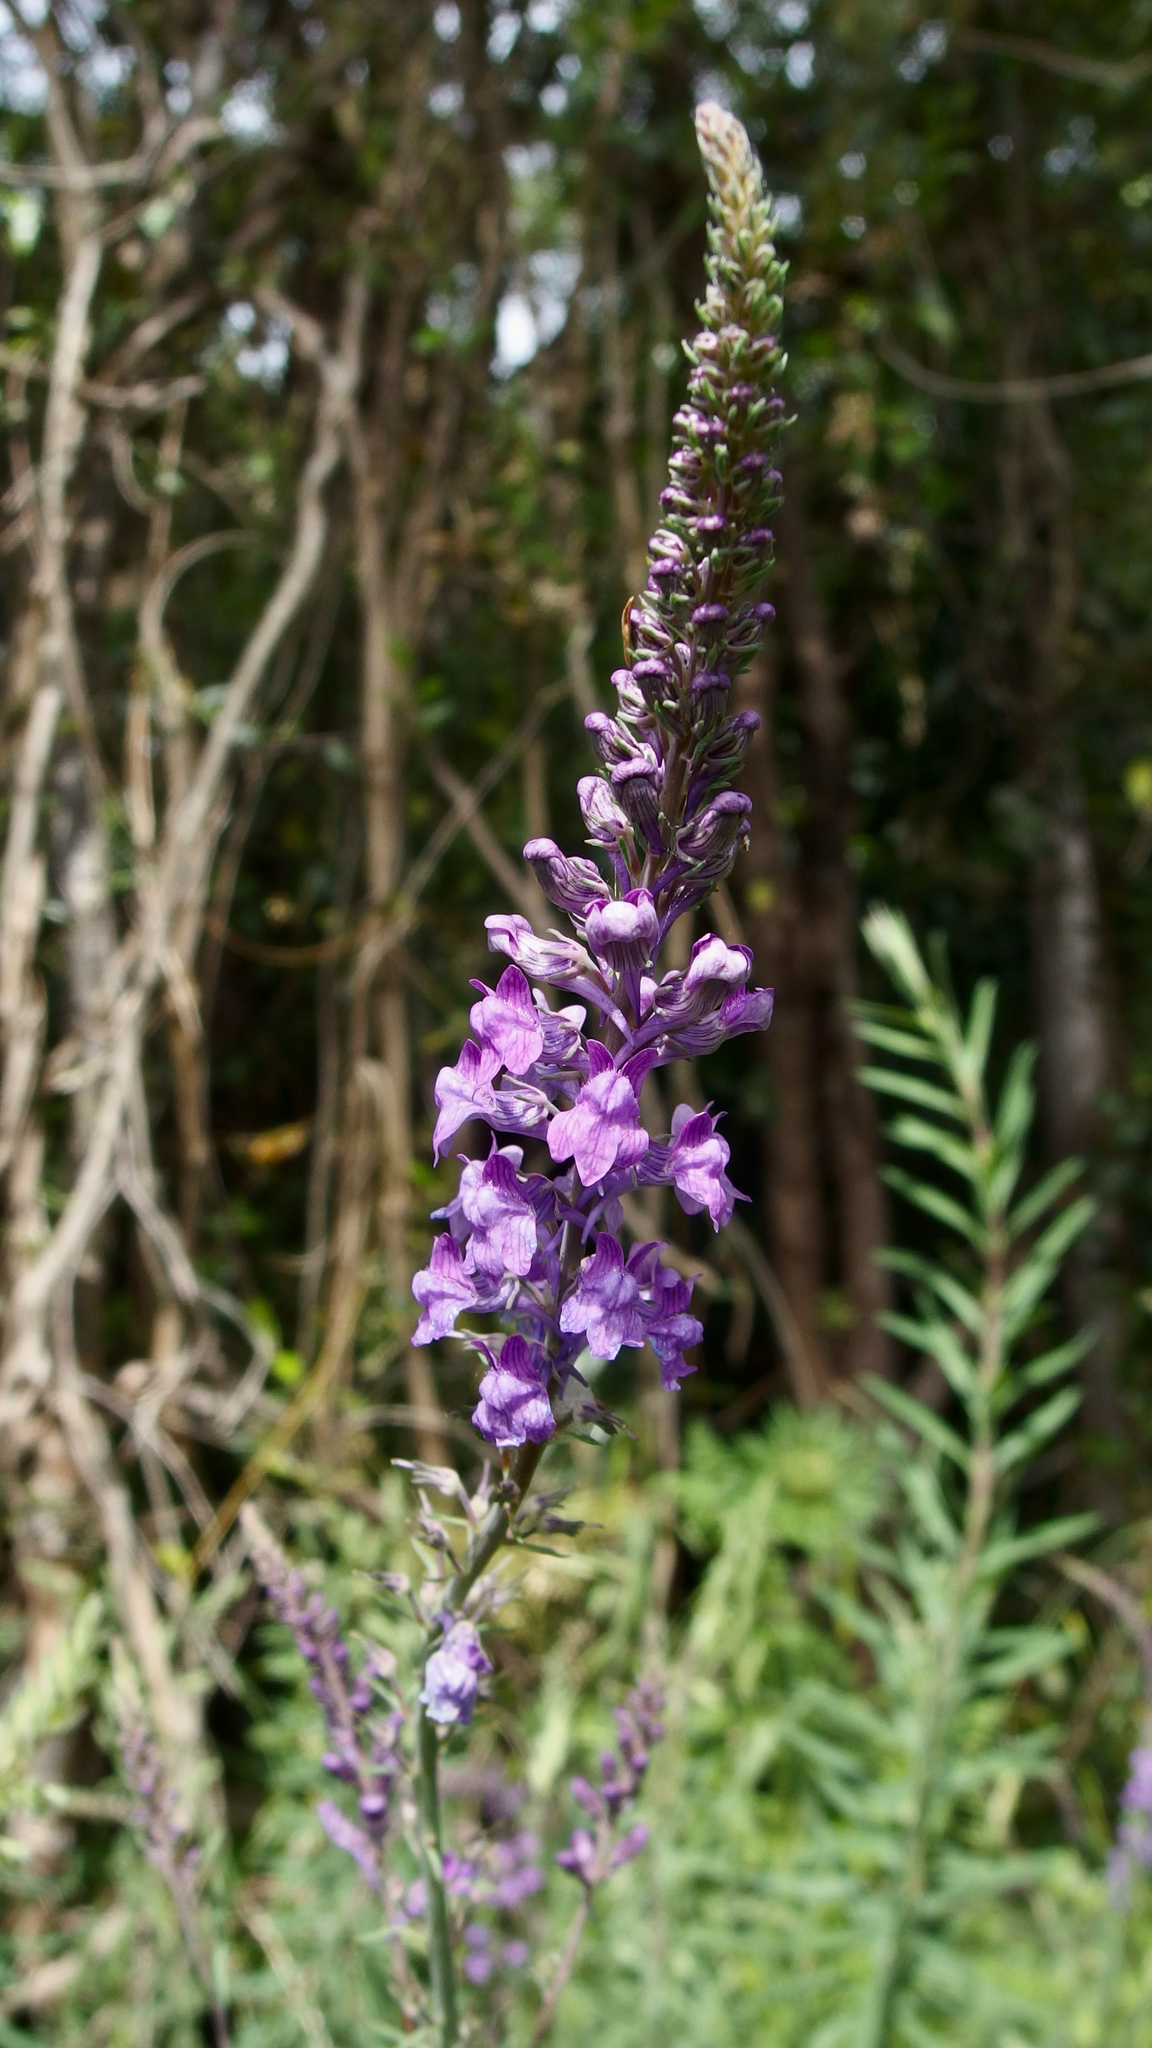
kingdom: Plantae
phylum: Tracheophyta
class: Magnoliopsida
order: Lamiales
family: Plantaginaceae
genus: Linaria
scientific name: Linaria purpurea
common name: Purple toadflax
